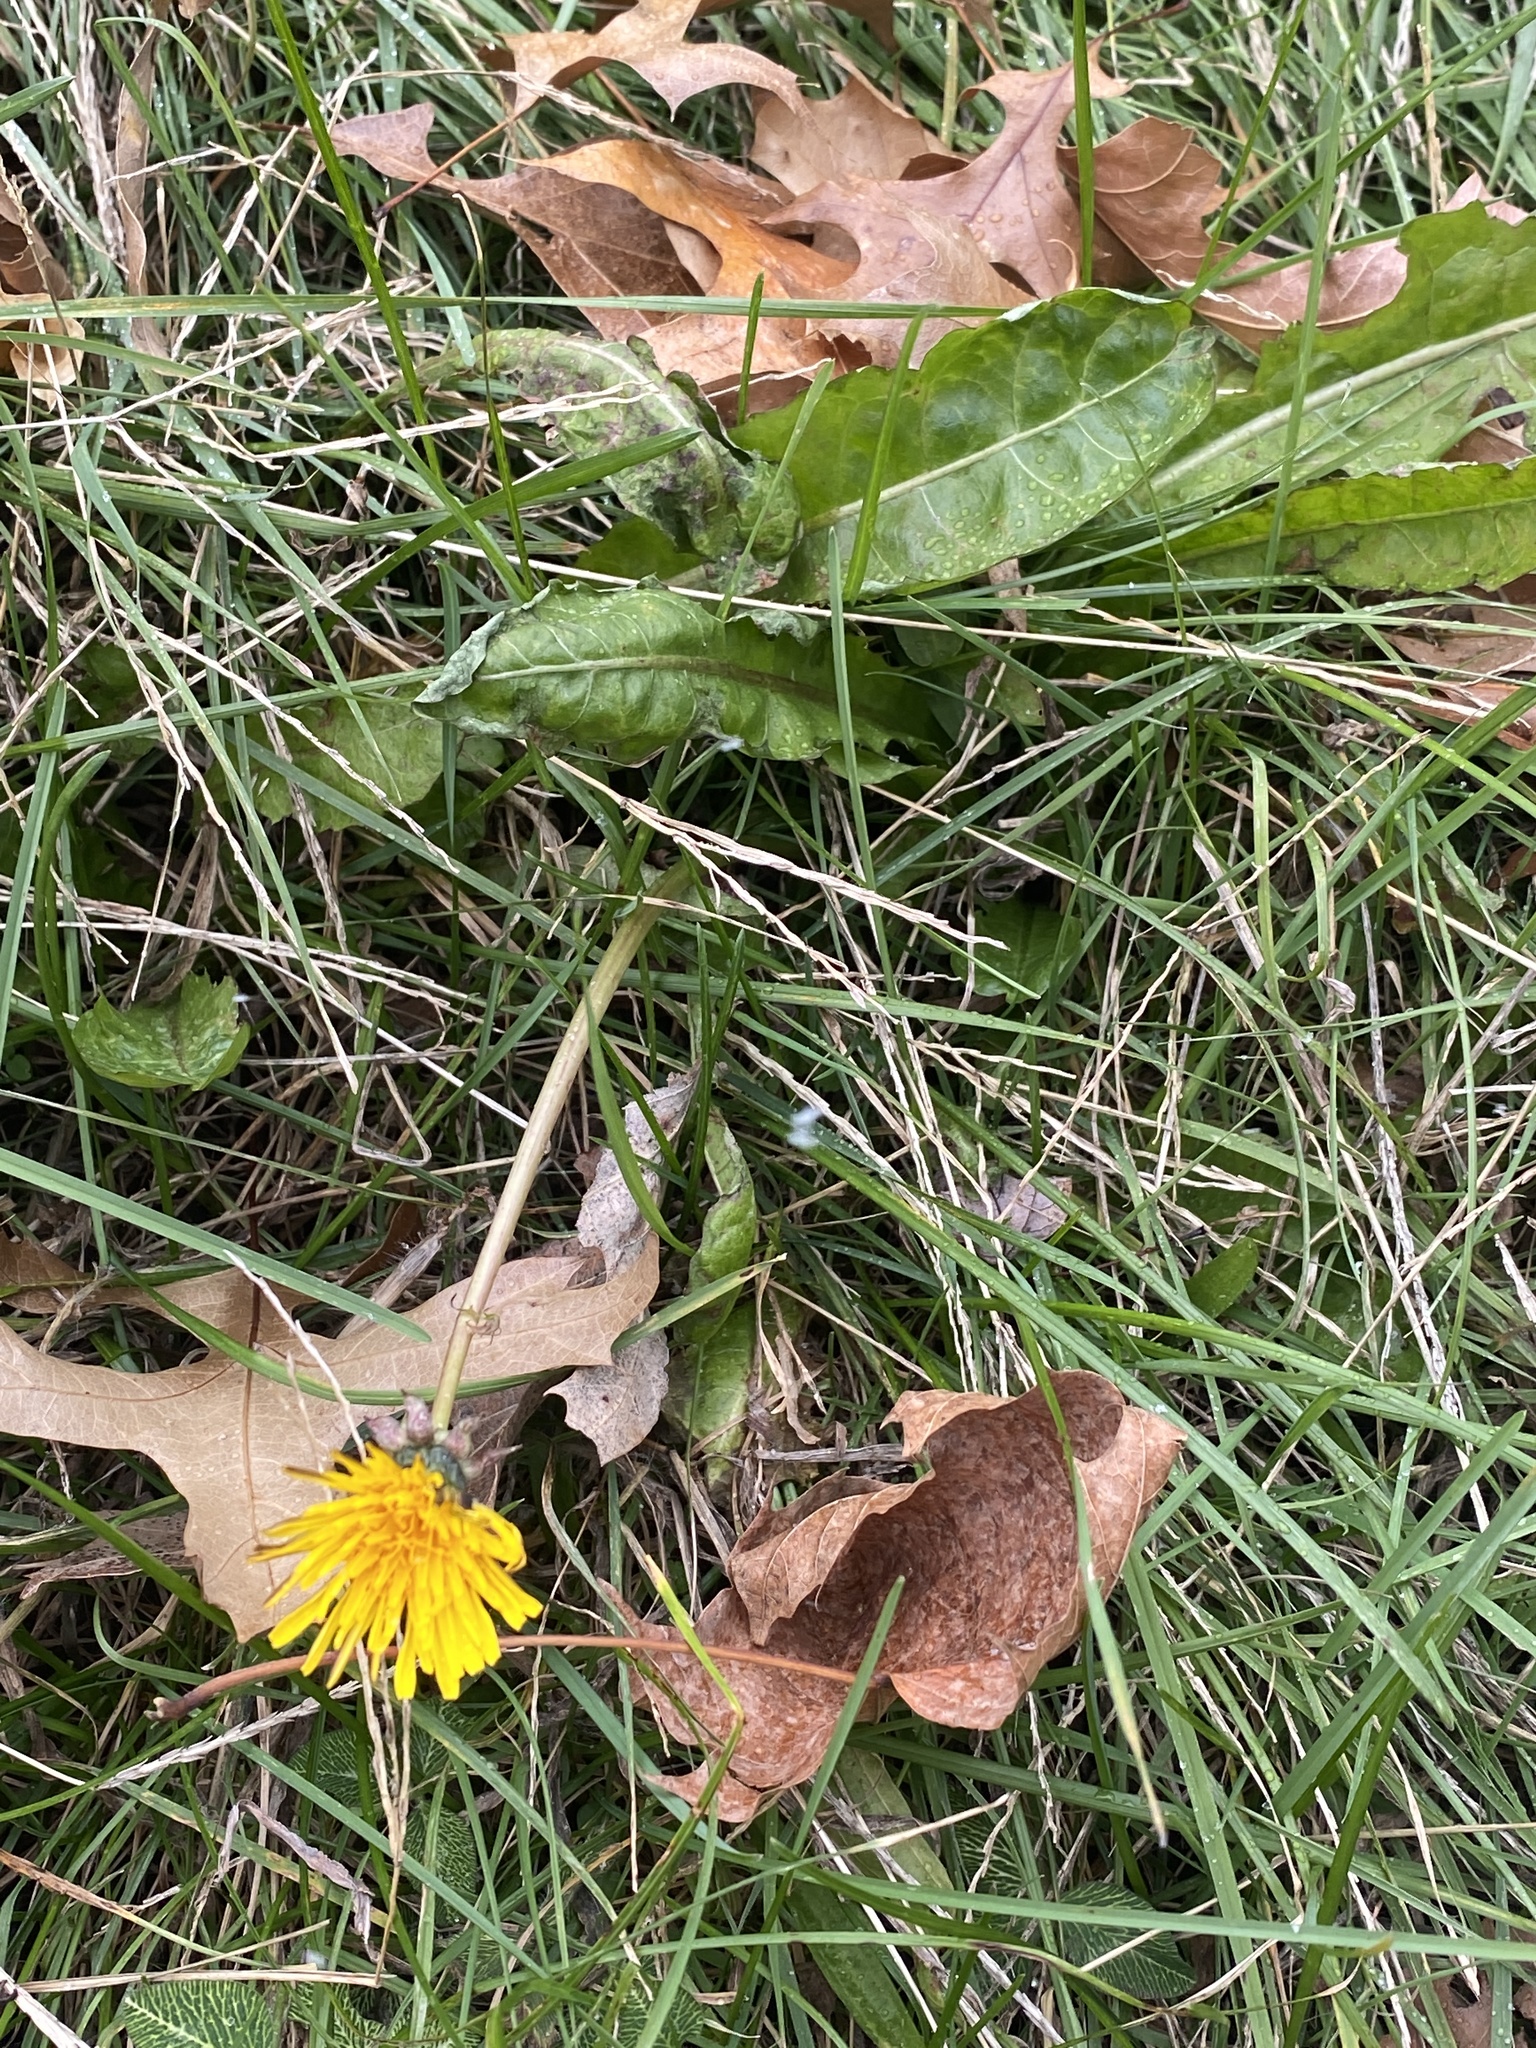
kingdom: Plantae
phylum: Tracheophyta
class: Magnoliopsida
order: Asterales
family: Asteraceae
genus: Taraxacum
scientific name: Taraxacum
